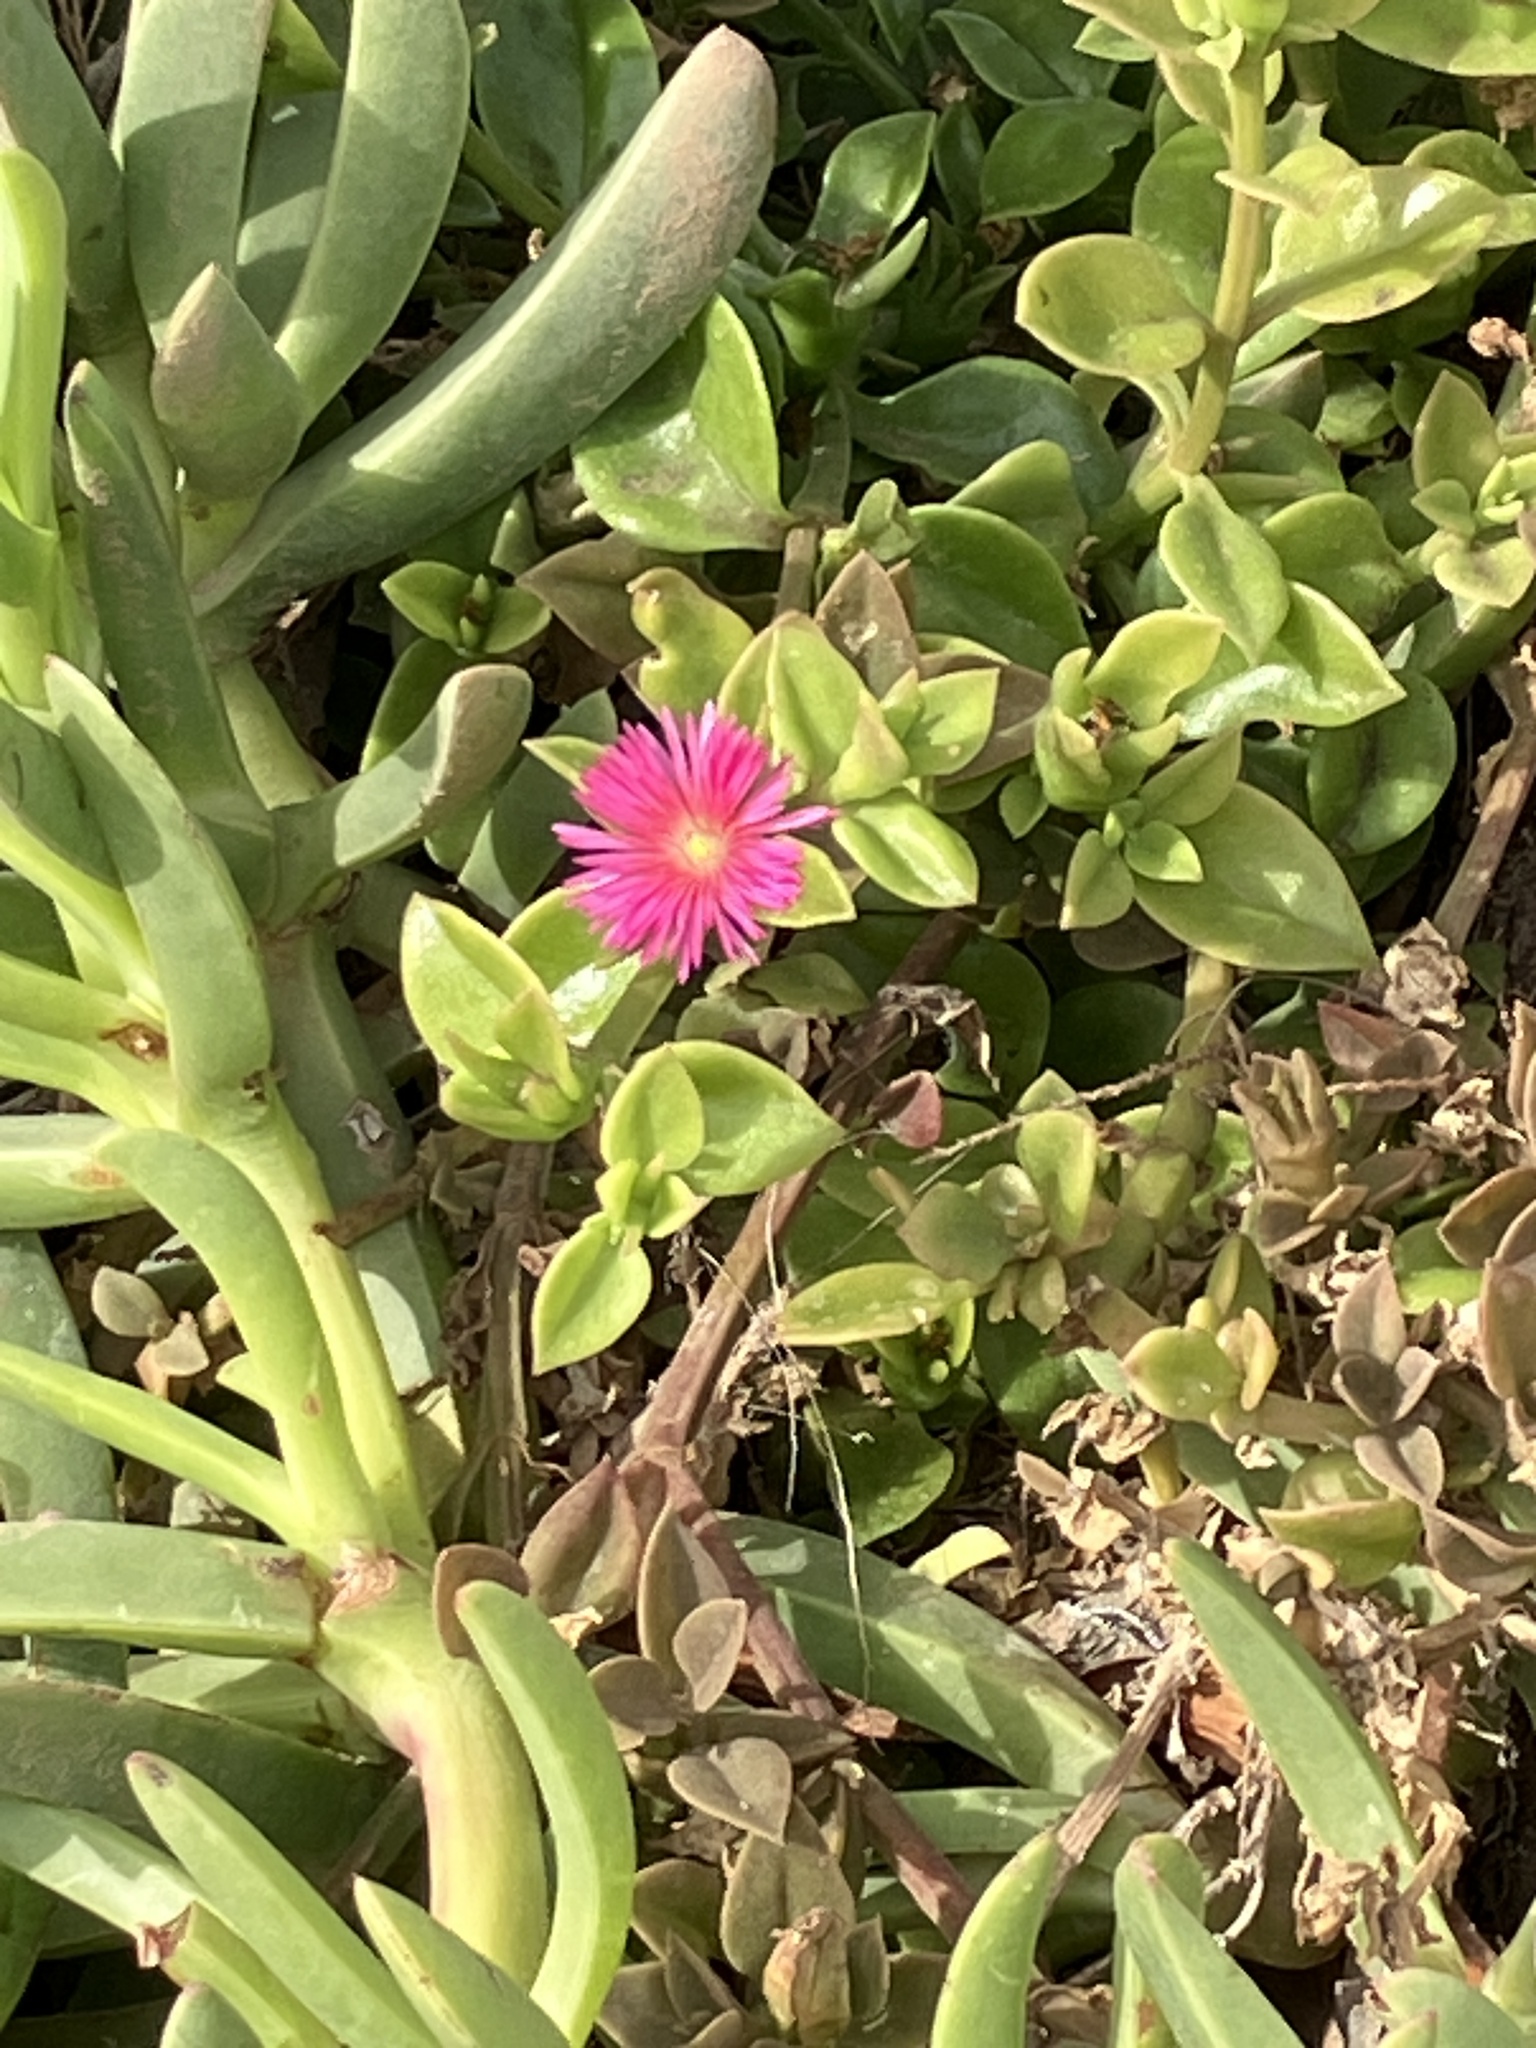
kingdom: Plantae
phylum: Tracheophyta
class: Magnoliopsida
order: Caryophyllales
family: Aizoaceae
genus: Mesembryanthemum
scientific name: Mesembryanthemum cordifolium
